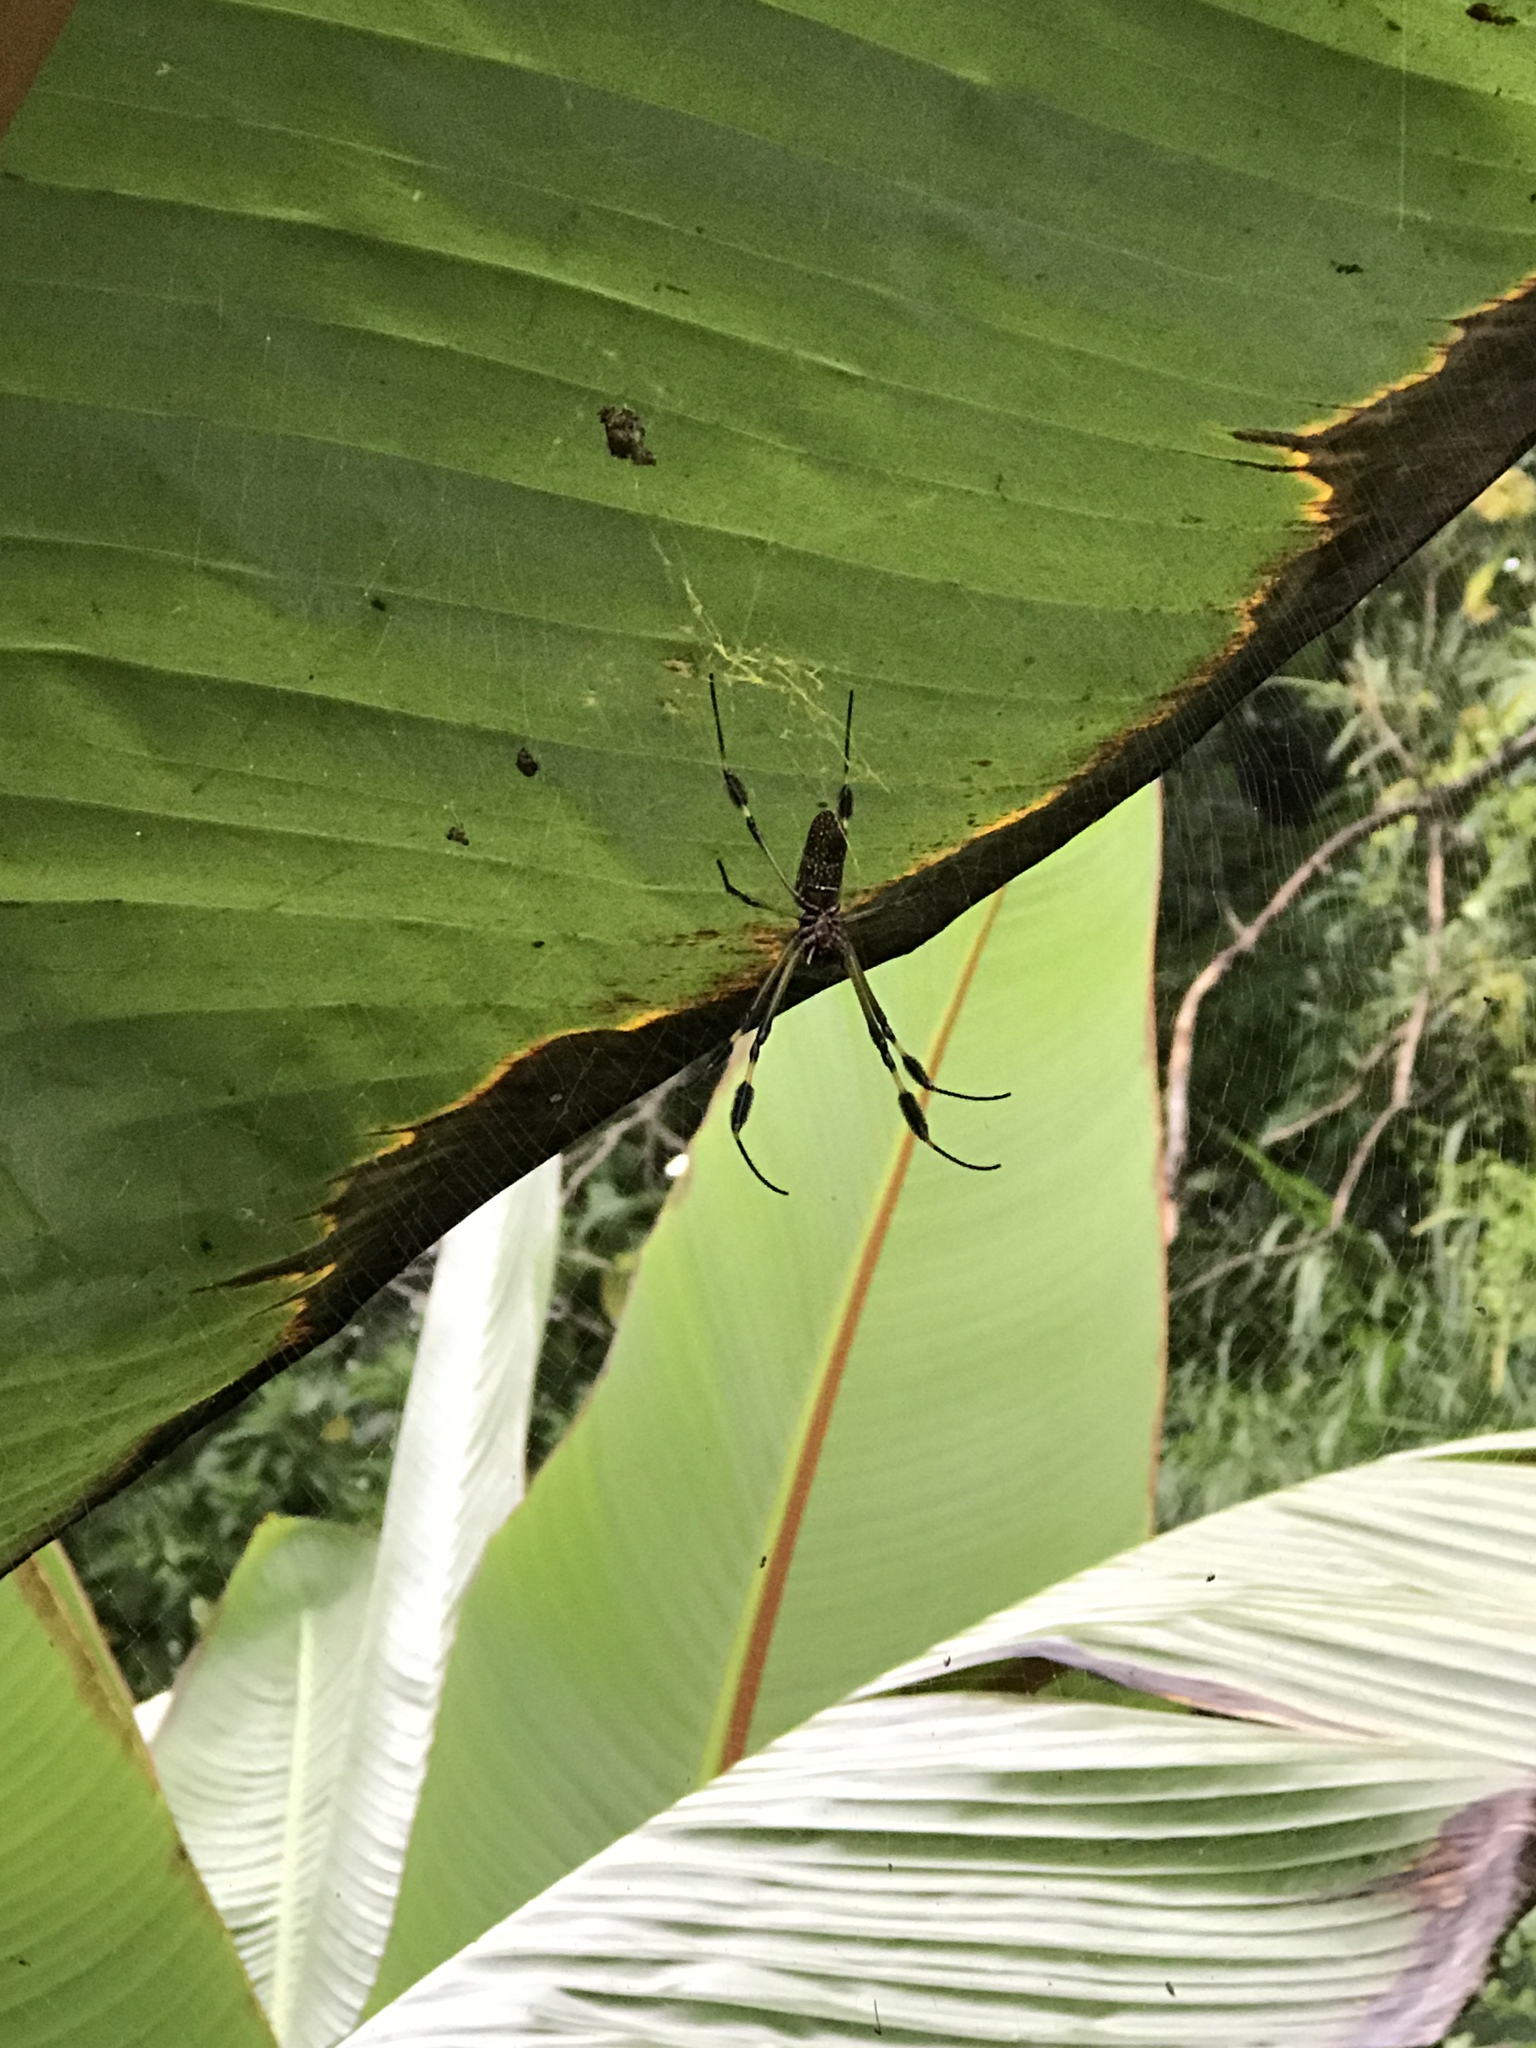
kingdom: Animalia
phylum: Arthropoda
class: Arachnida
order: Araneae
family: Araneidae
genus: Trichonephila
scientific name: Trichonephila clavipes
